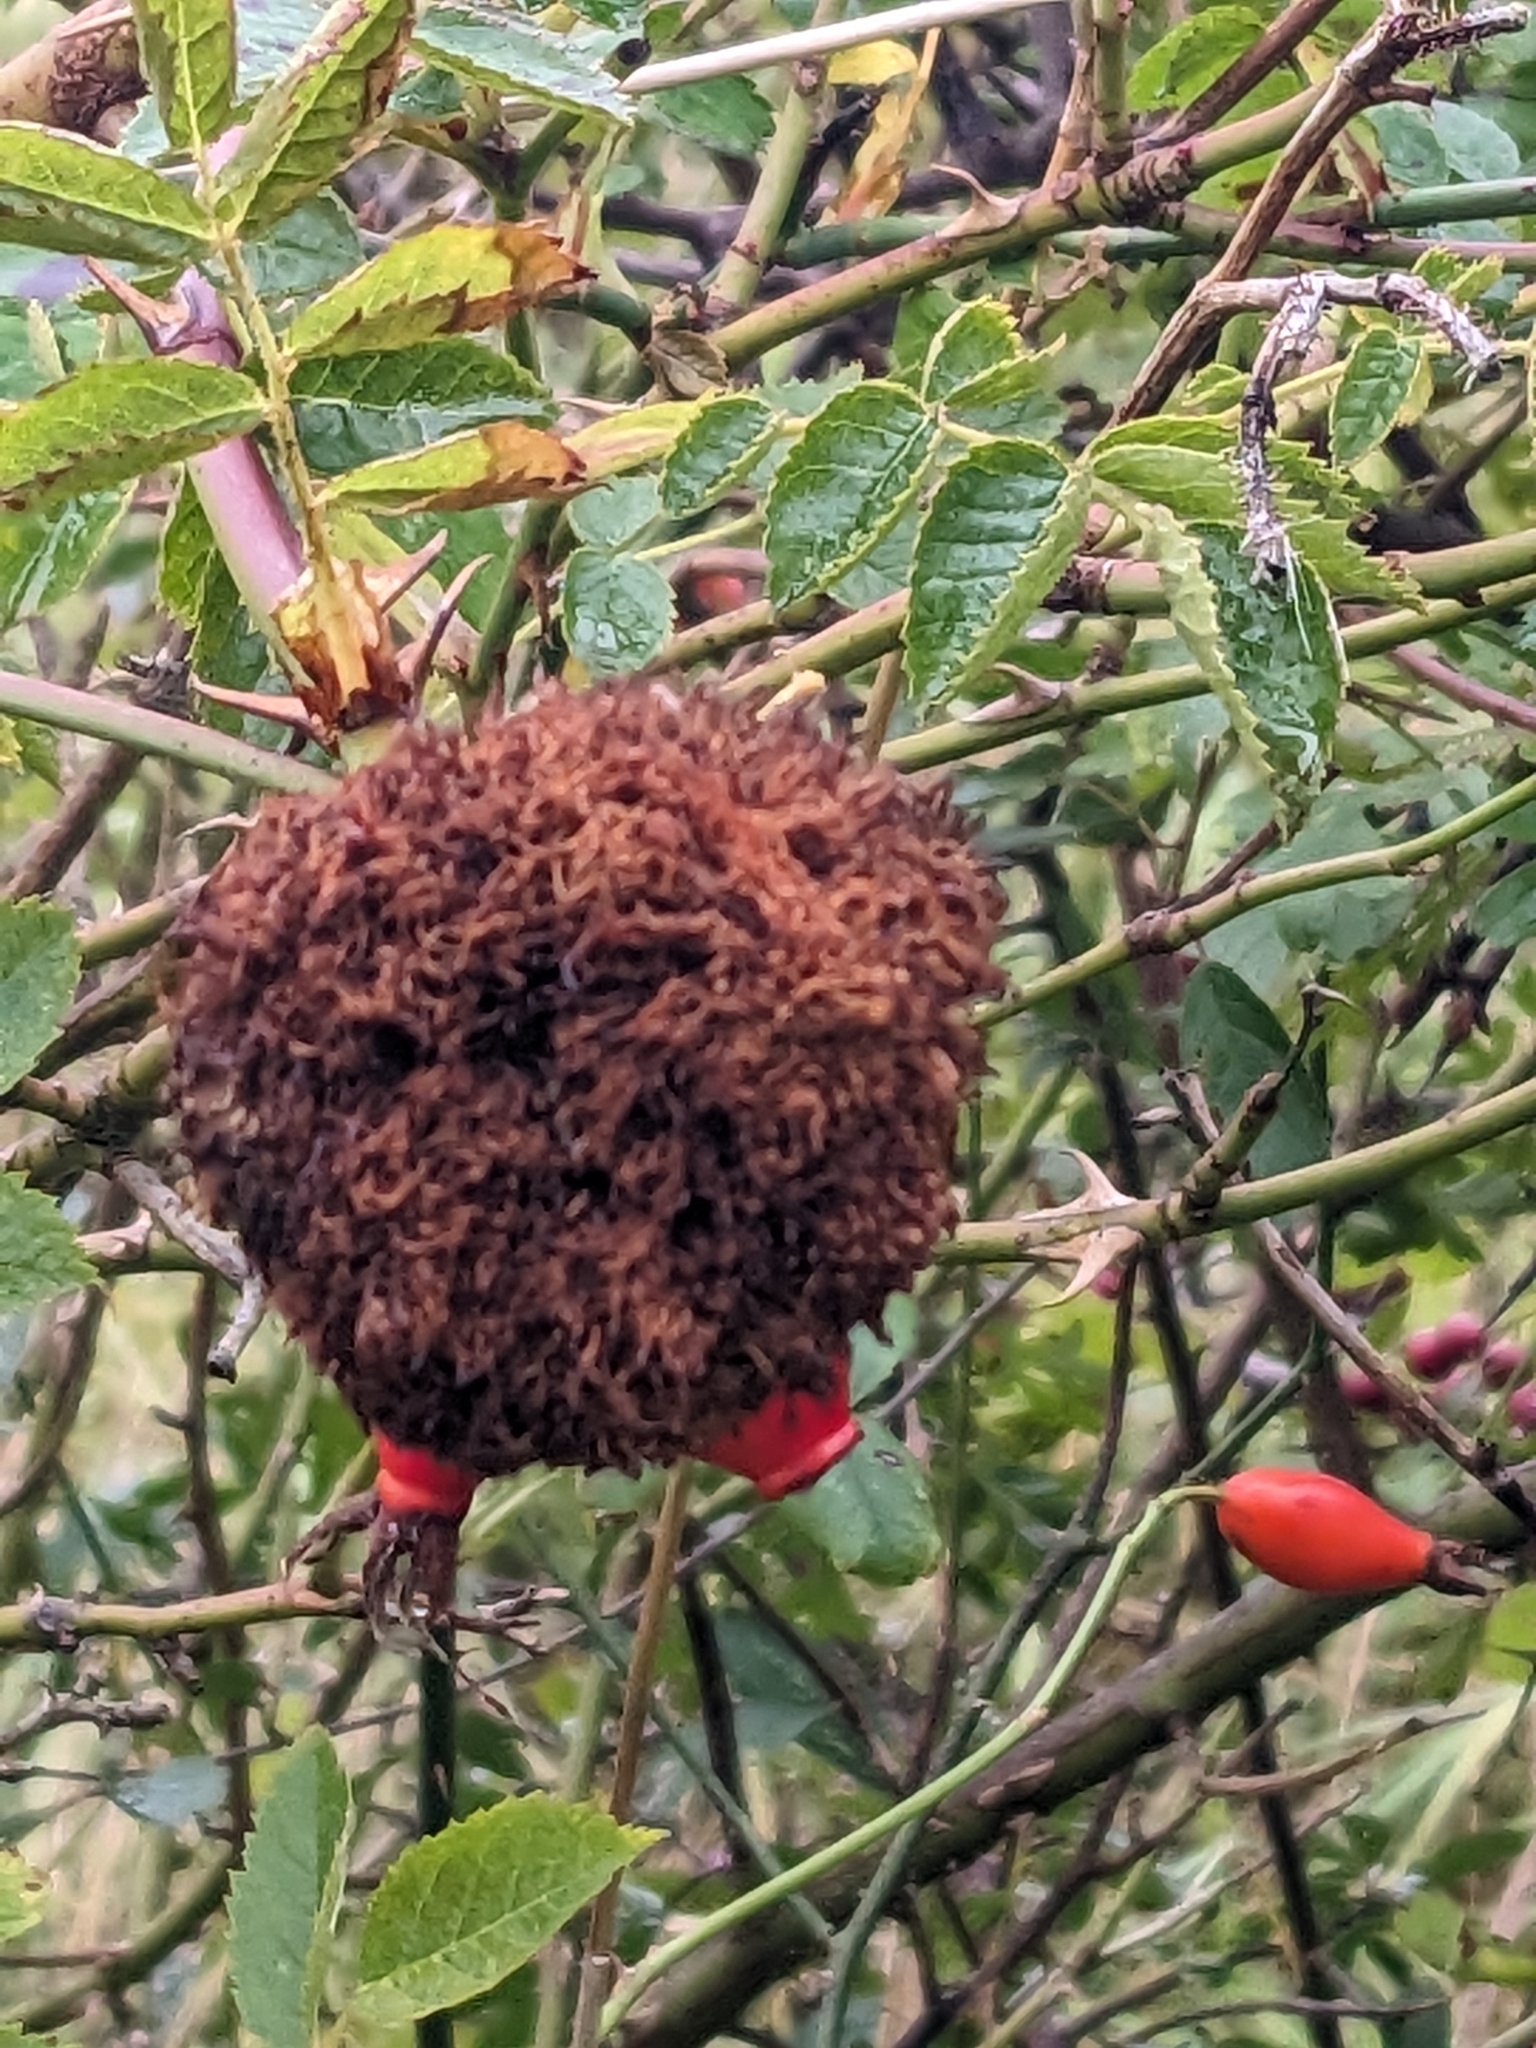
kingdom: Animalia
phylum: Arthropoda
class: Insecta
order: Hymenoptera
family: Cynipidae
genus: Diplolepis
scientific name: Diplolepis rosae
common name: Bedeguar gall
